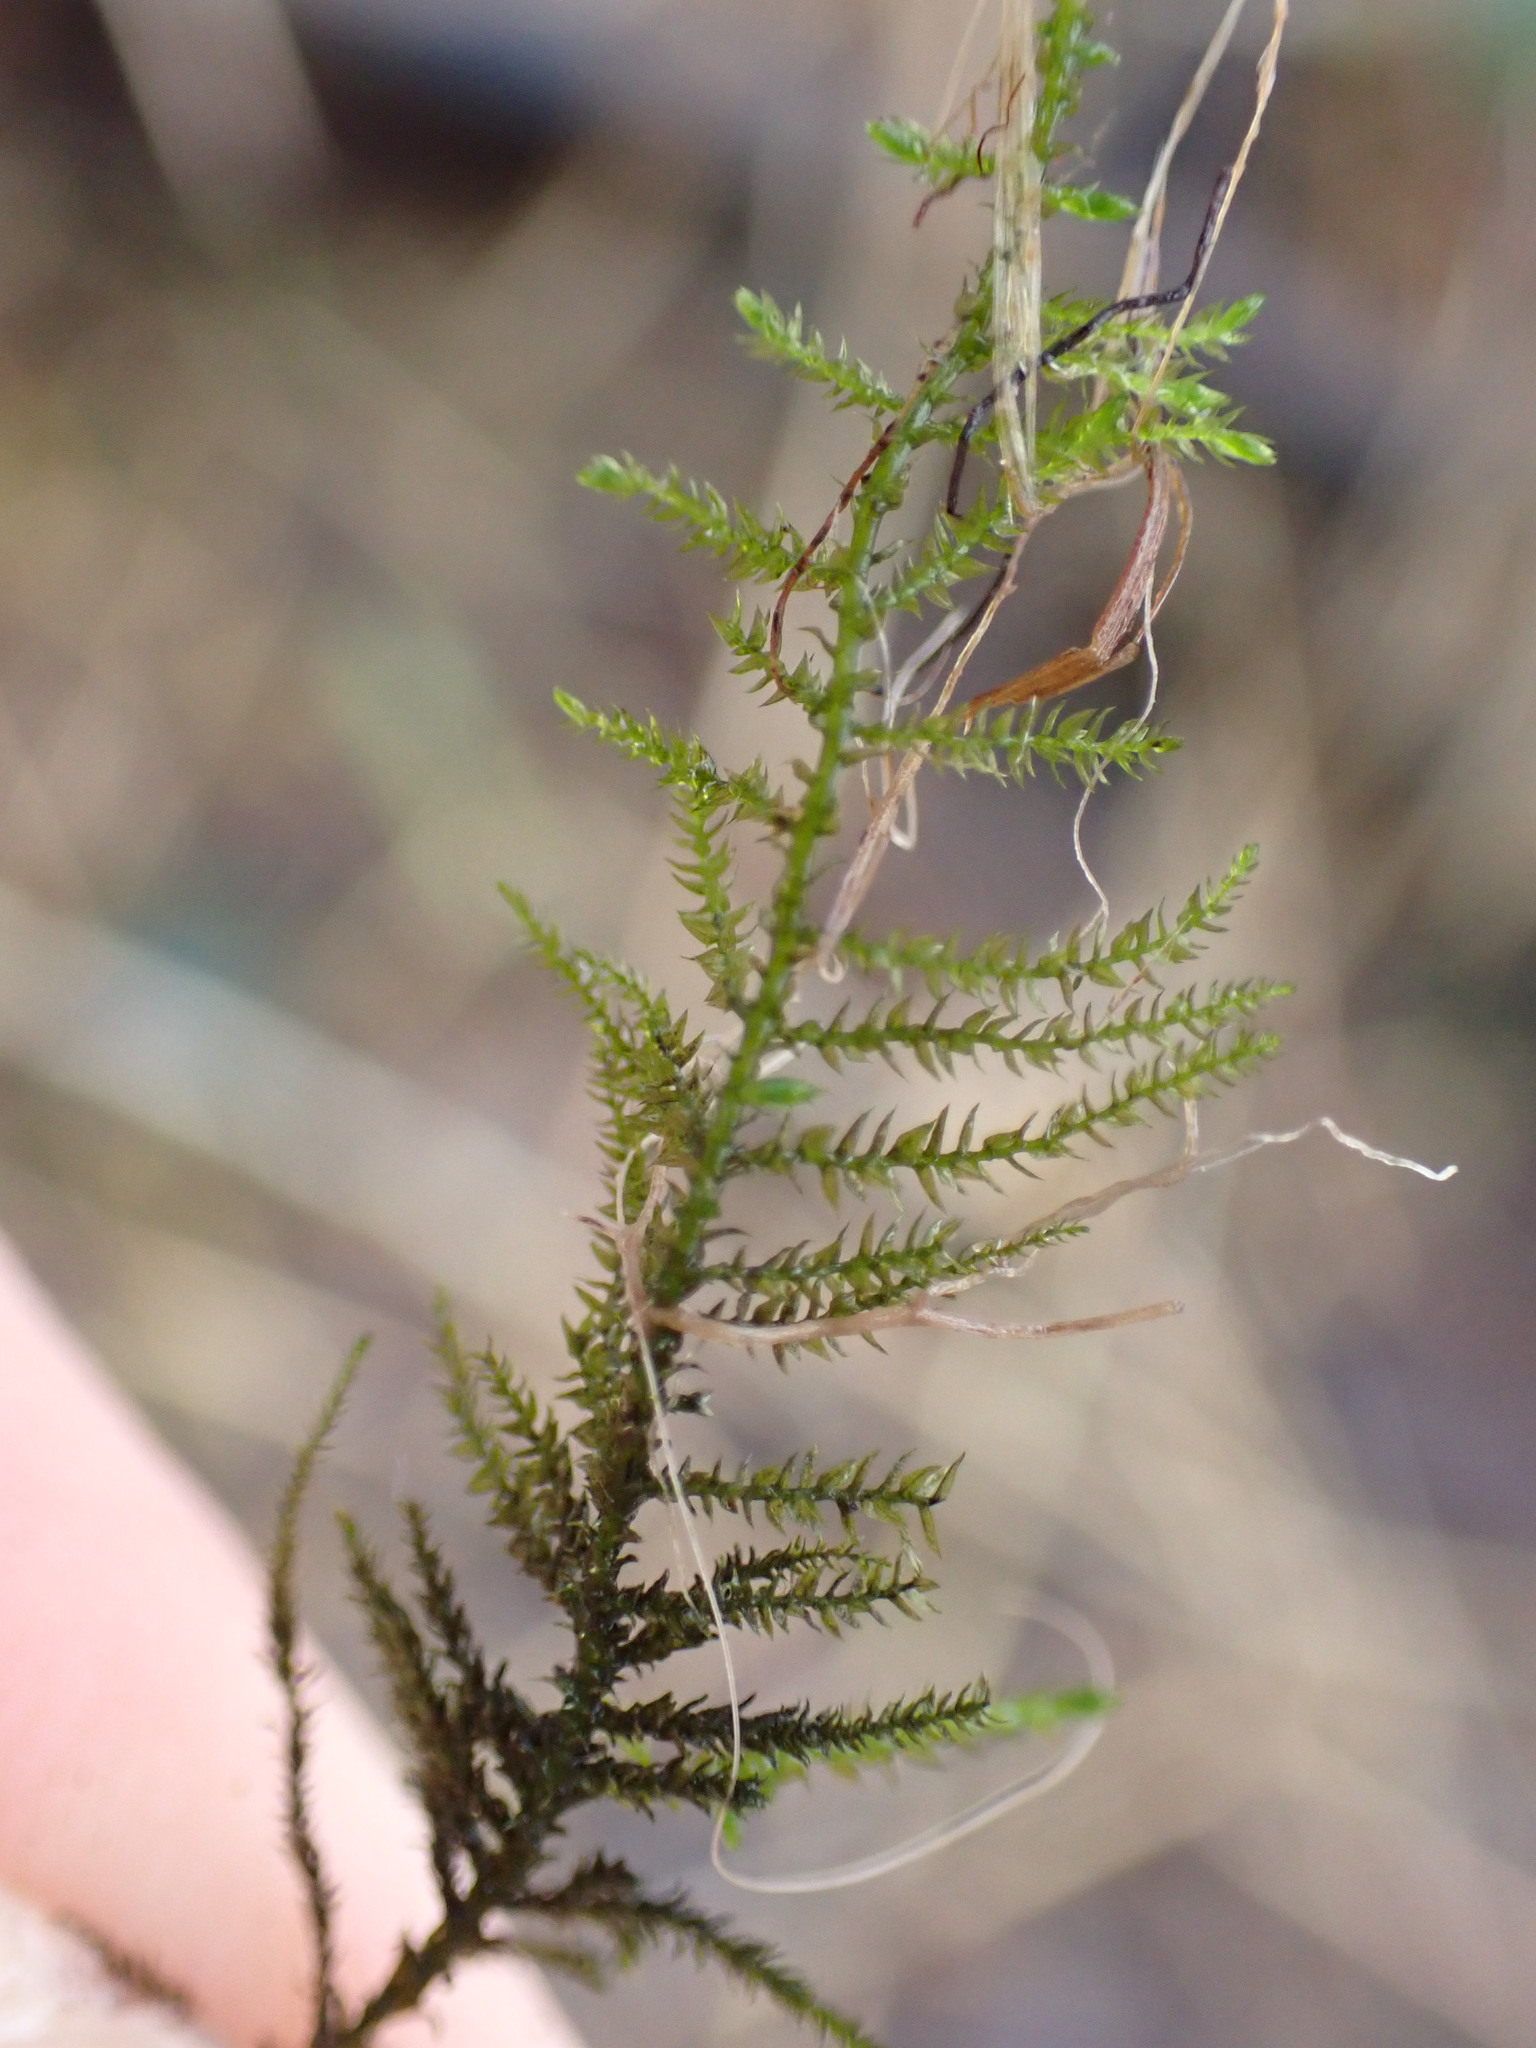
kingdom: Plantae
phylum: Bryophyta
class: Bryopsida
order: Hypnales
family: Brachytheciaceae
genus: Kindbergia
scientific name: Kindbergia praelonga
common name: Slender beaked moss
